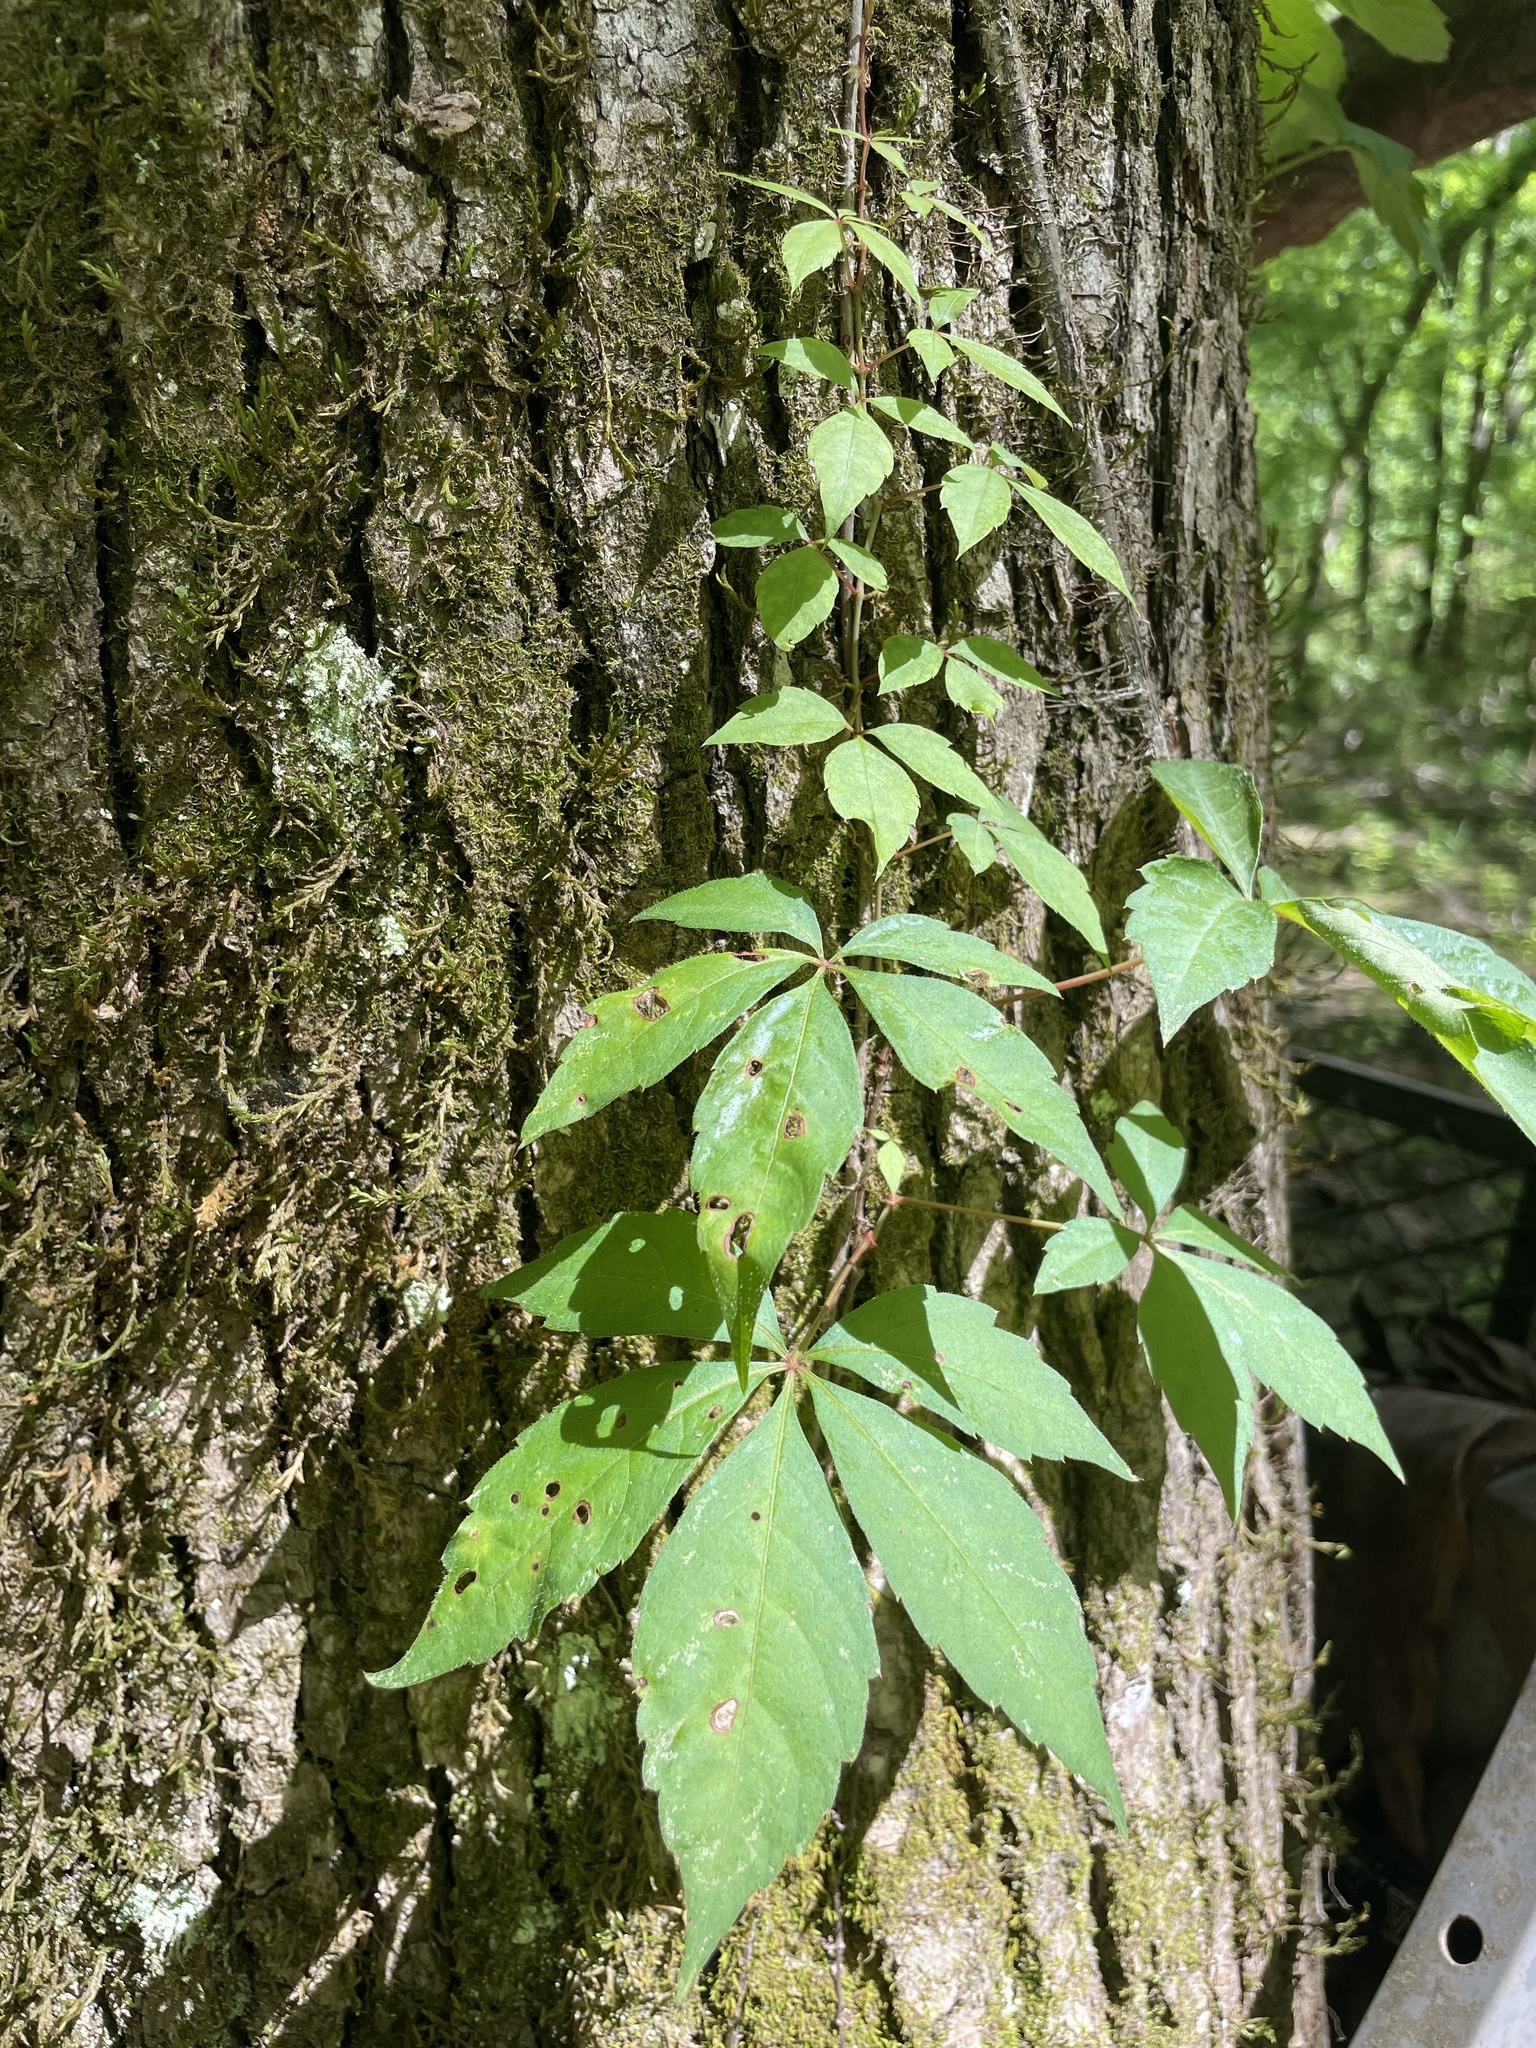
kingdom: Plantae
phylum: Tracheophyta
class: Magnoliopsida
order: Vitales
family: Vitaceae
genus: Parthenocissus
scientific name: Parthenocissus quinquefolia
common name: Virginia-creeper
